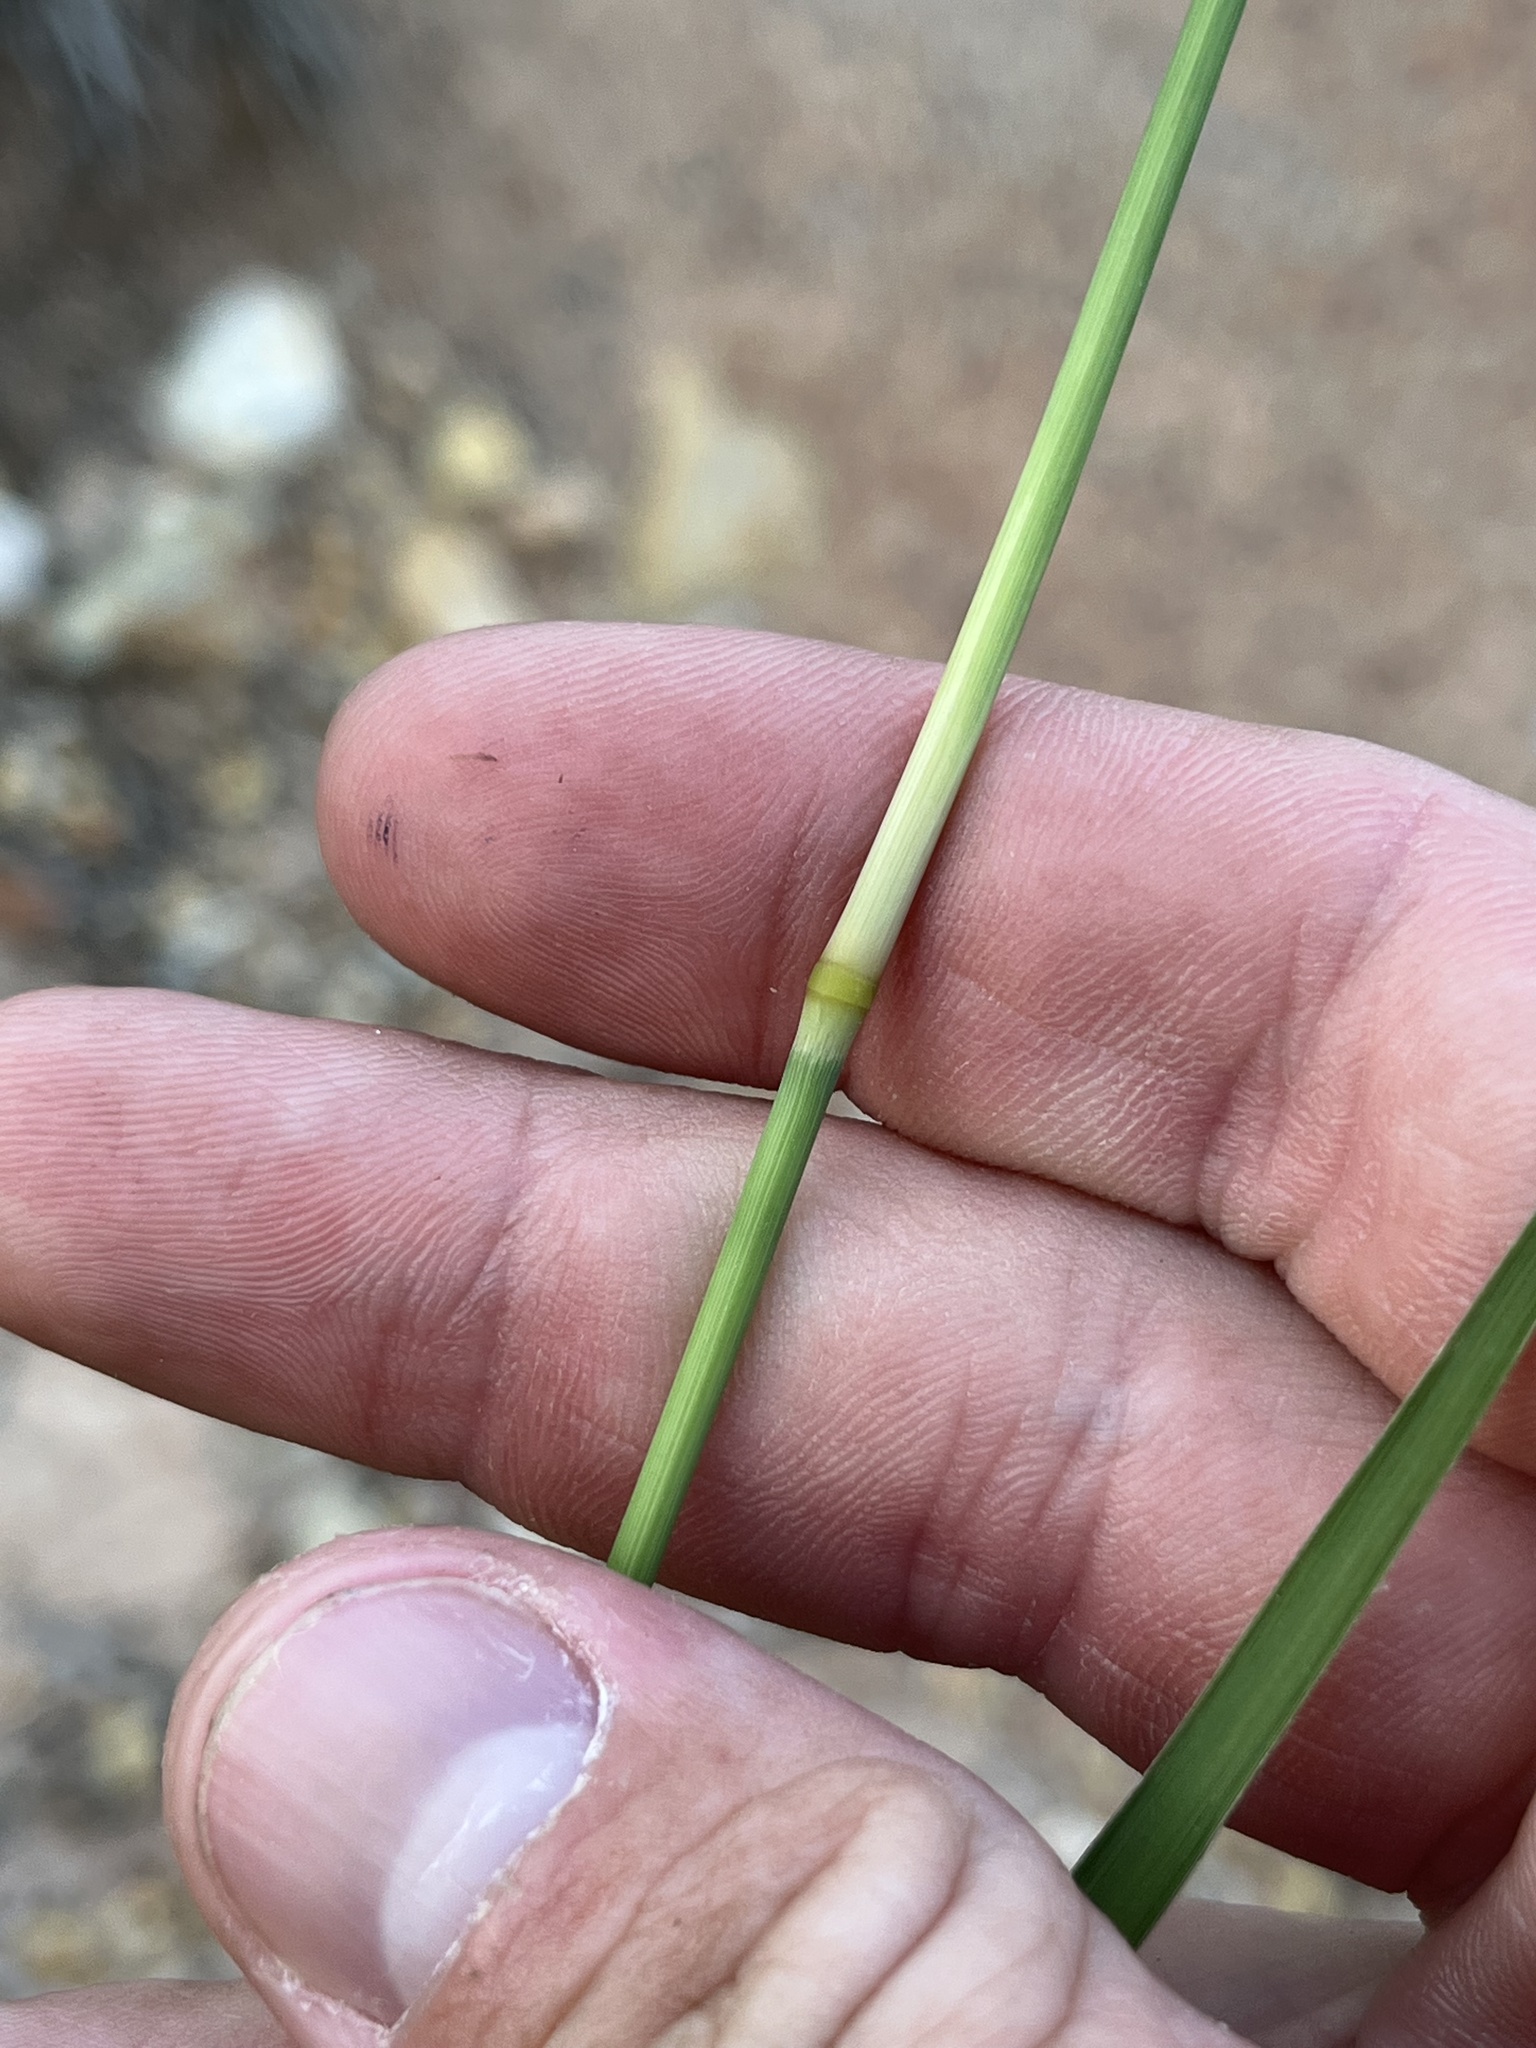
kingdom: Plantae
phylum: Tracheophyta
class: Liliopsida
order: Poales
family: Poaceae
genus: Stapfochloa
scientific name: Stapfochloa canterae
